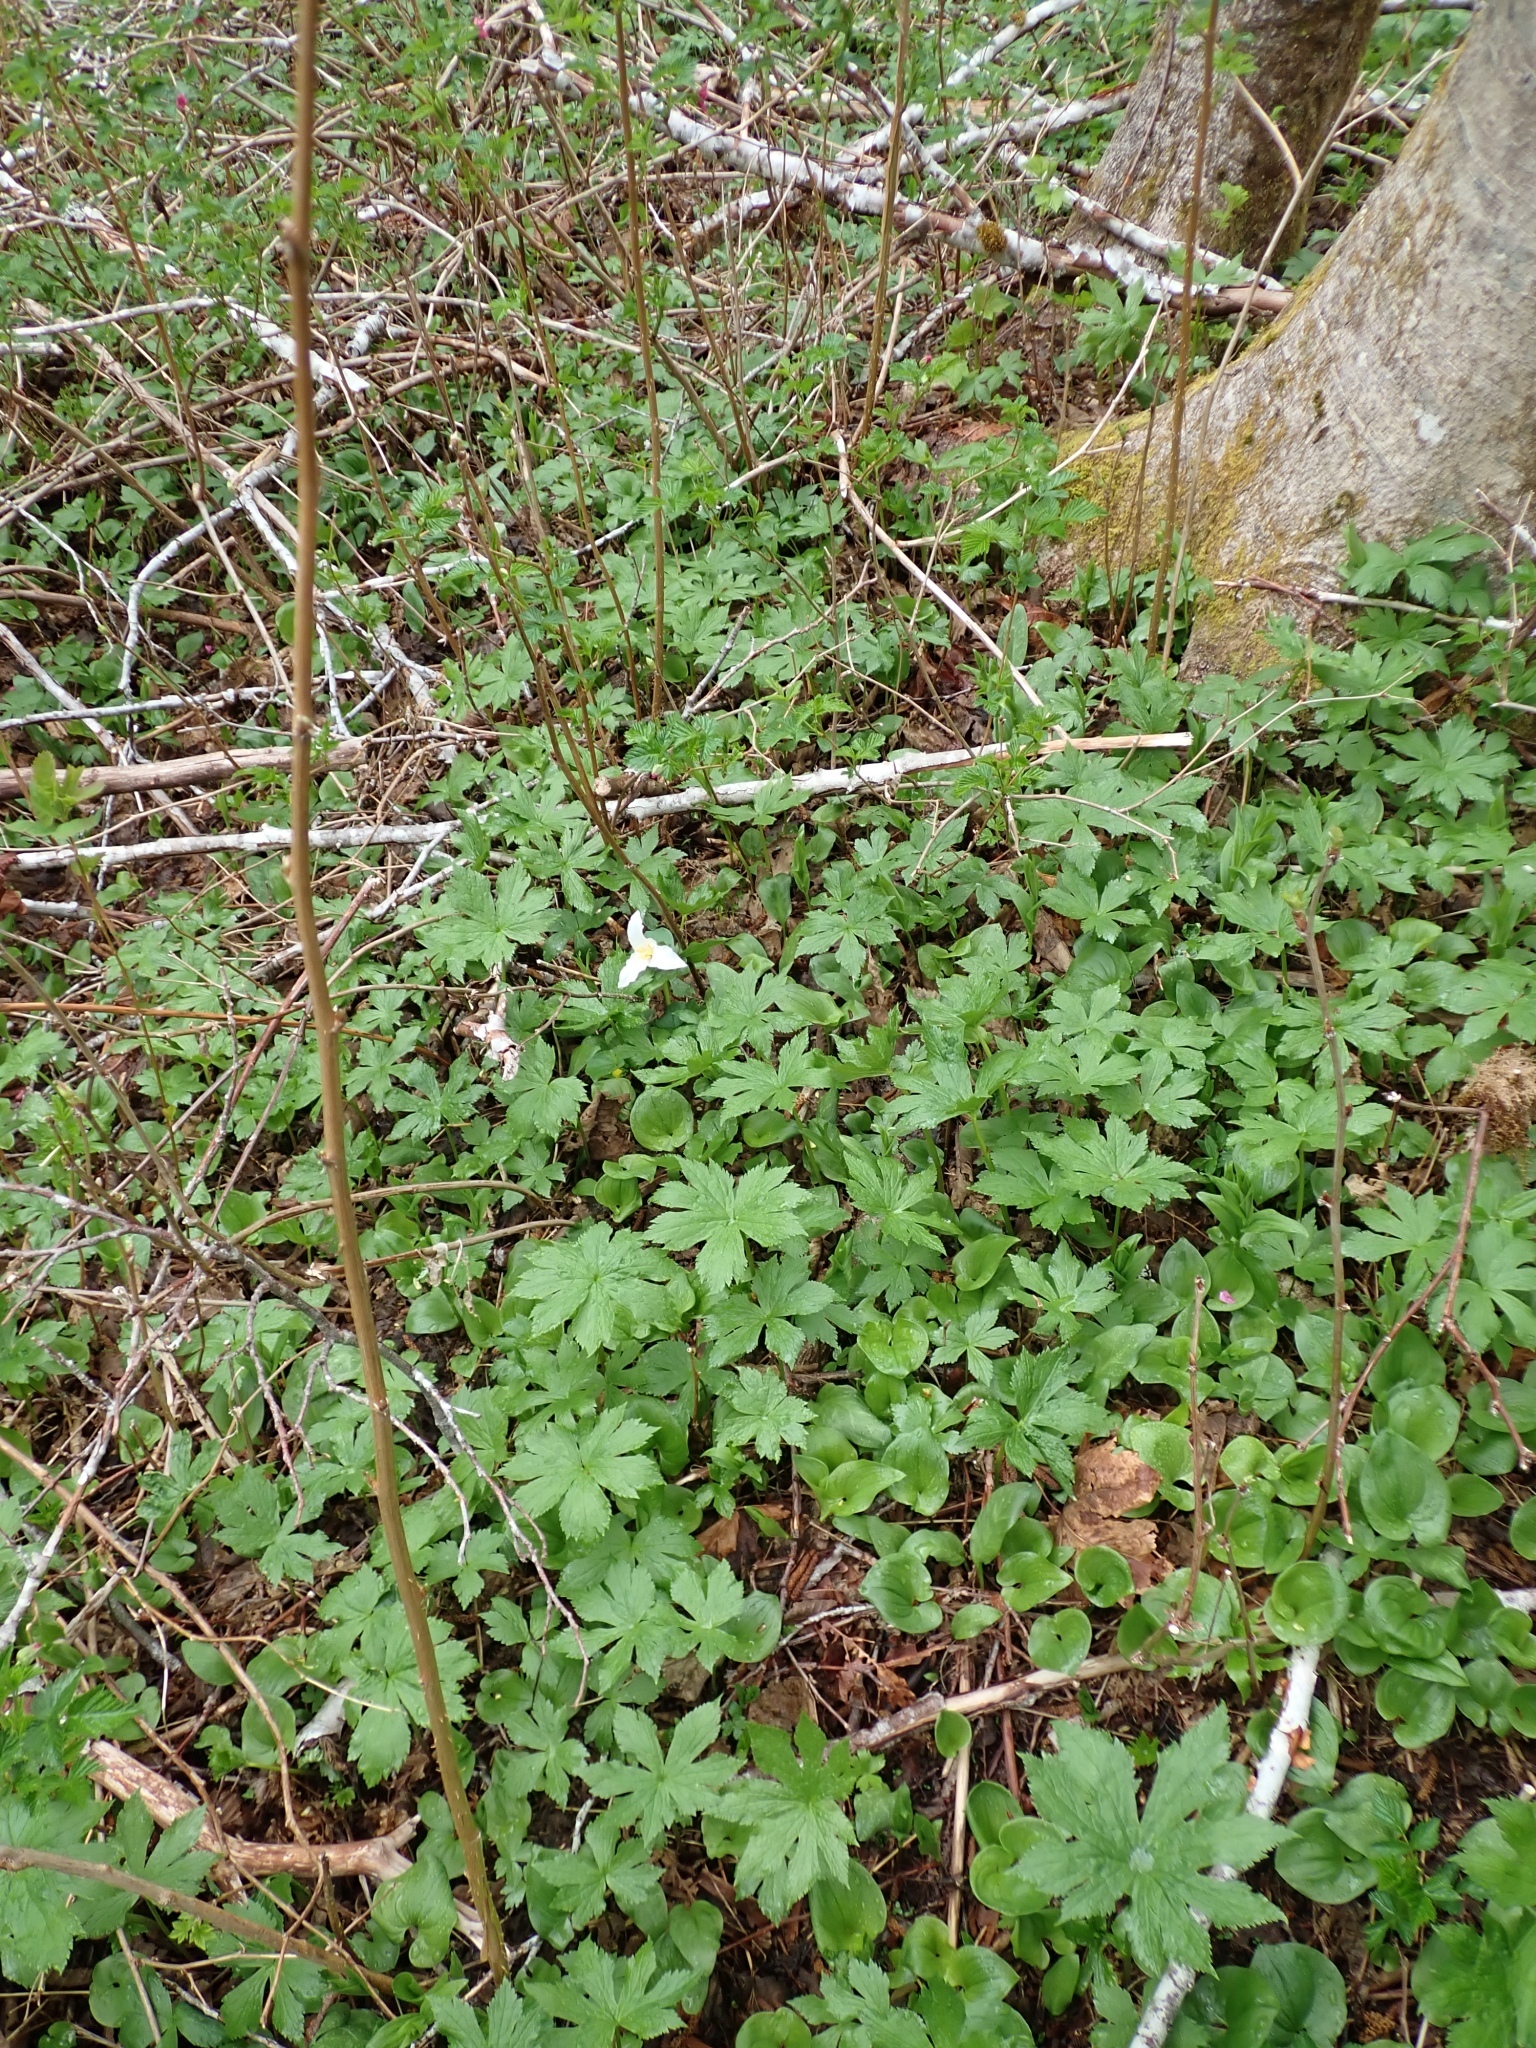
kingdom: Plantae
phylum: Tracheophyta
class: Magnoliopsida
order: Ranunculales
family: Ranunculaceae
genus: Trautvetteria
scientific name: Trautvetteria carolinensis
